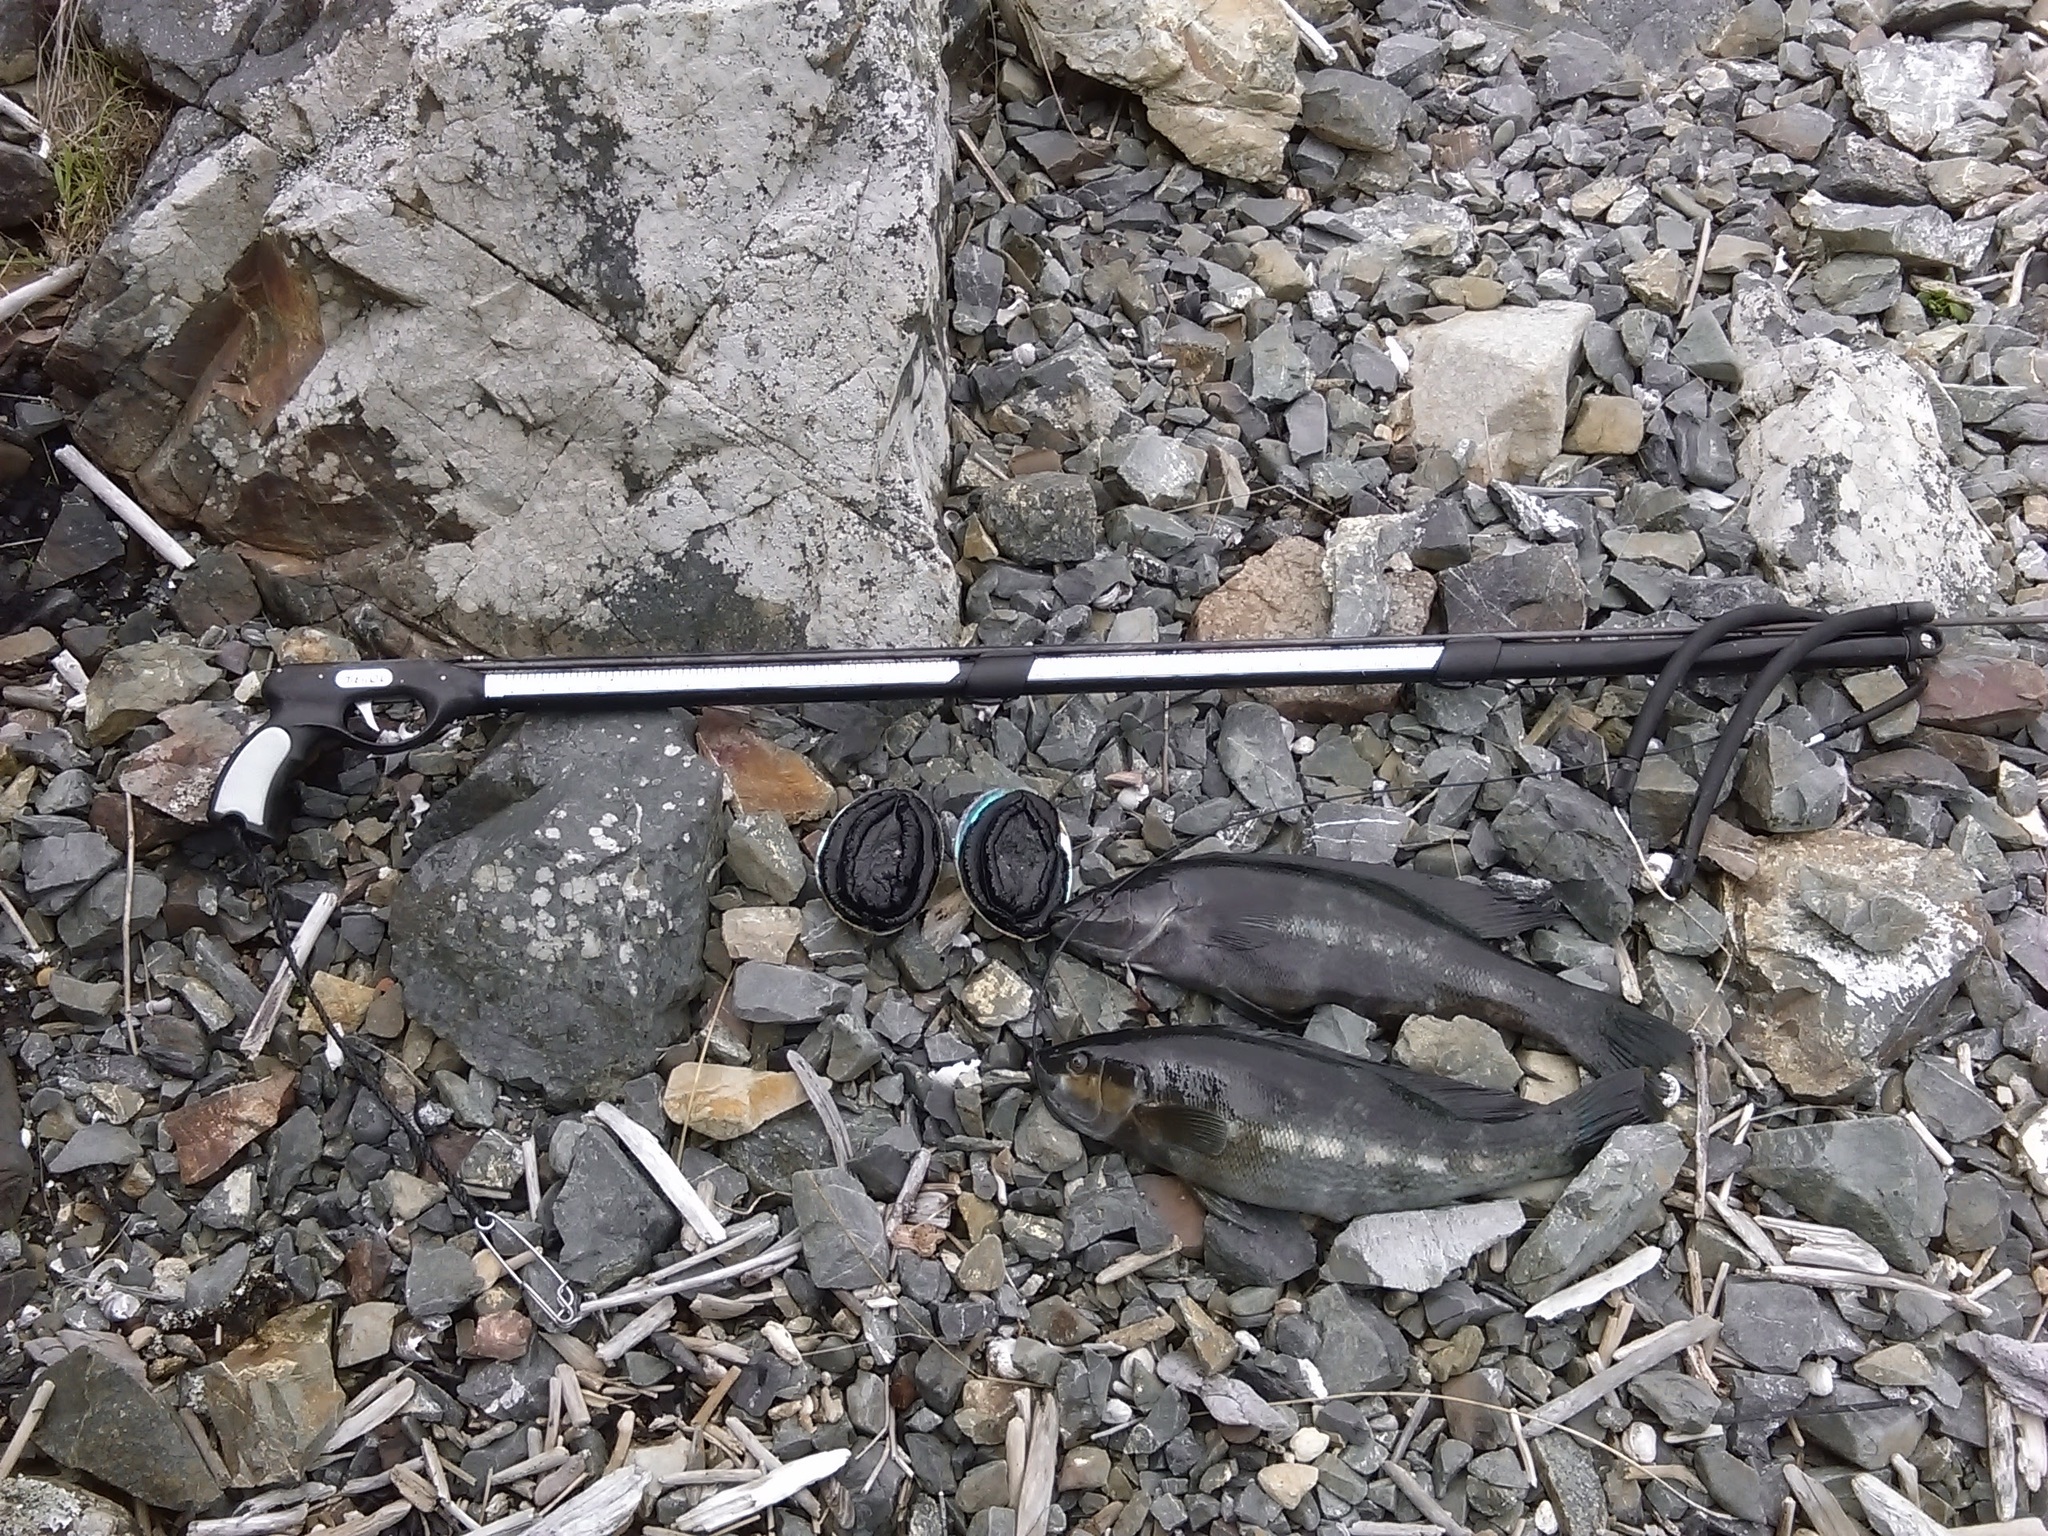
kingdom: Animalia
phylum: Chordata
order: Perciformes
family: Odacidae
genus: Odax
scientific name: Odax pullus
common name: Butterfish
